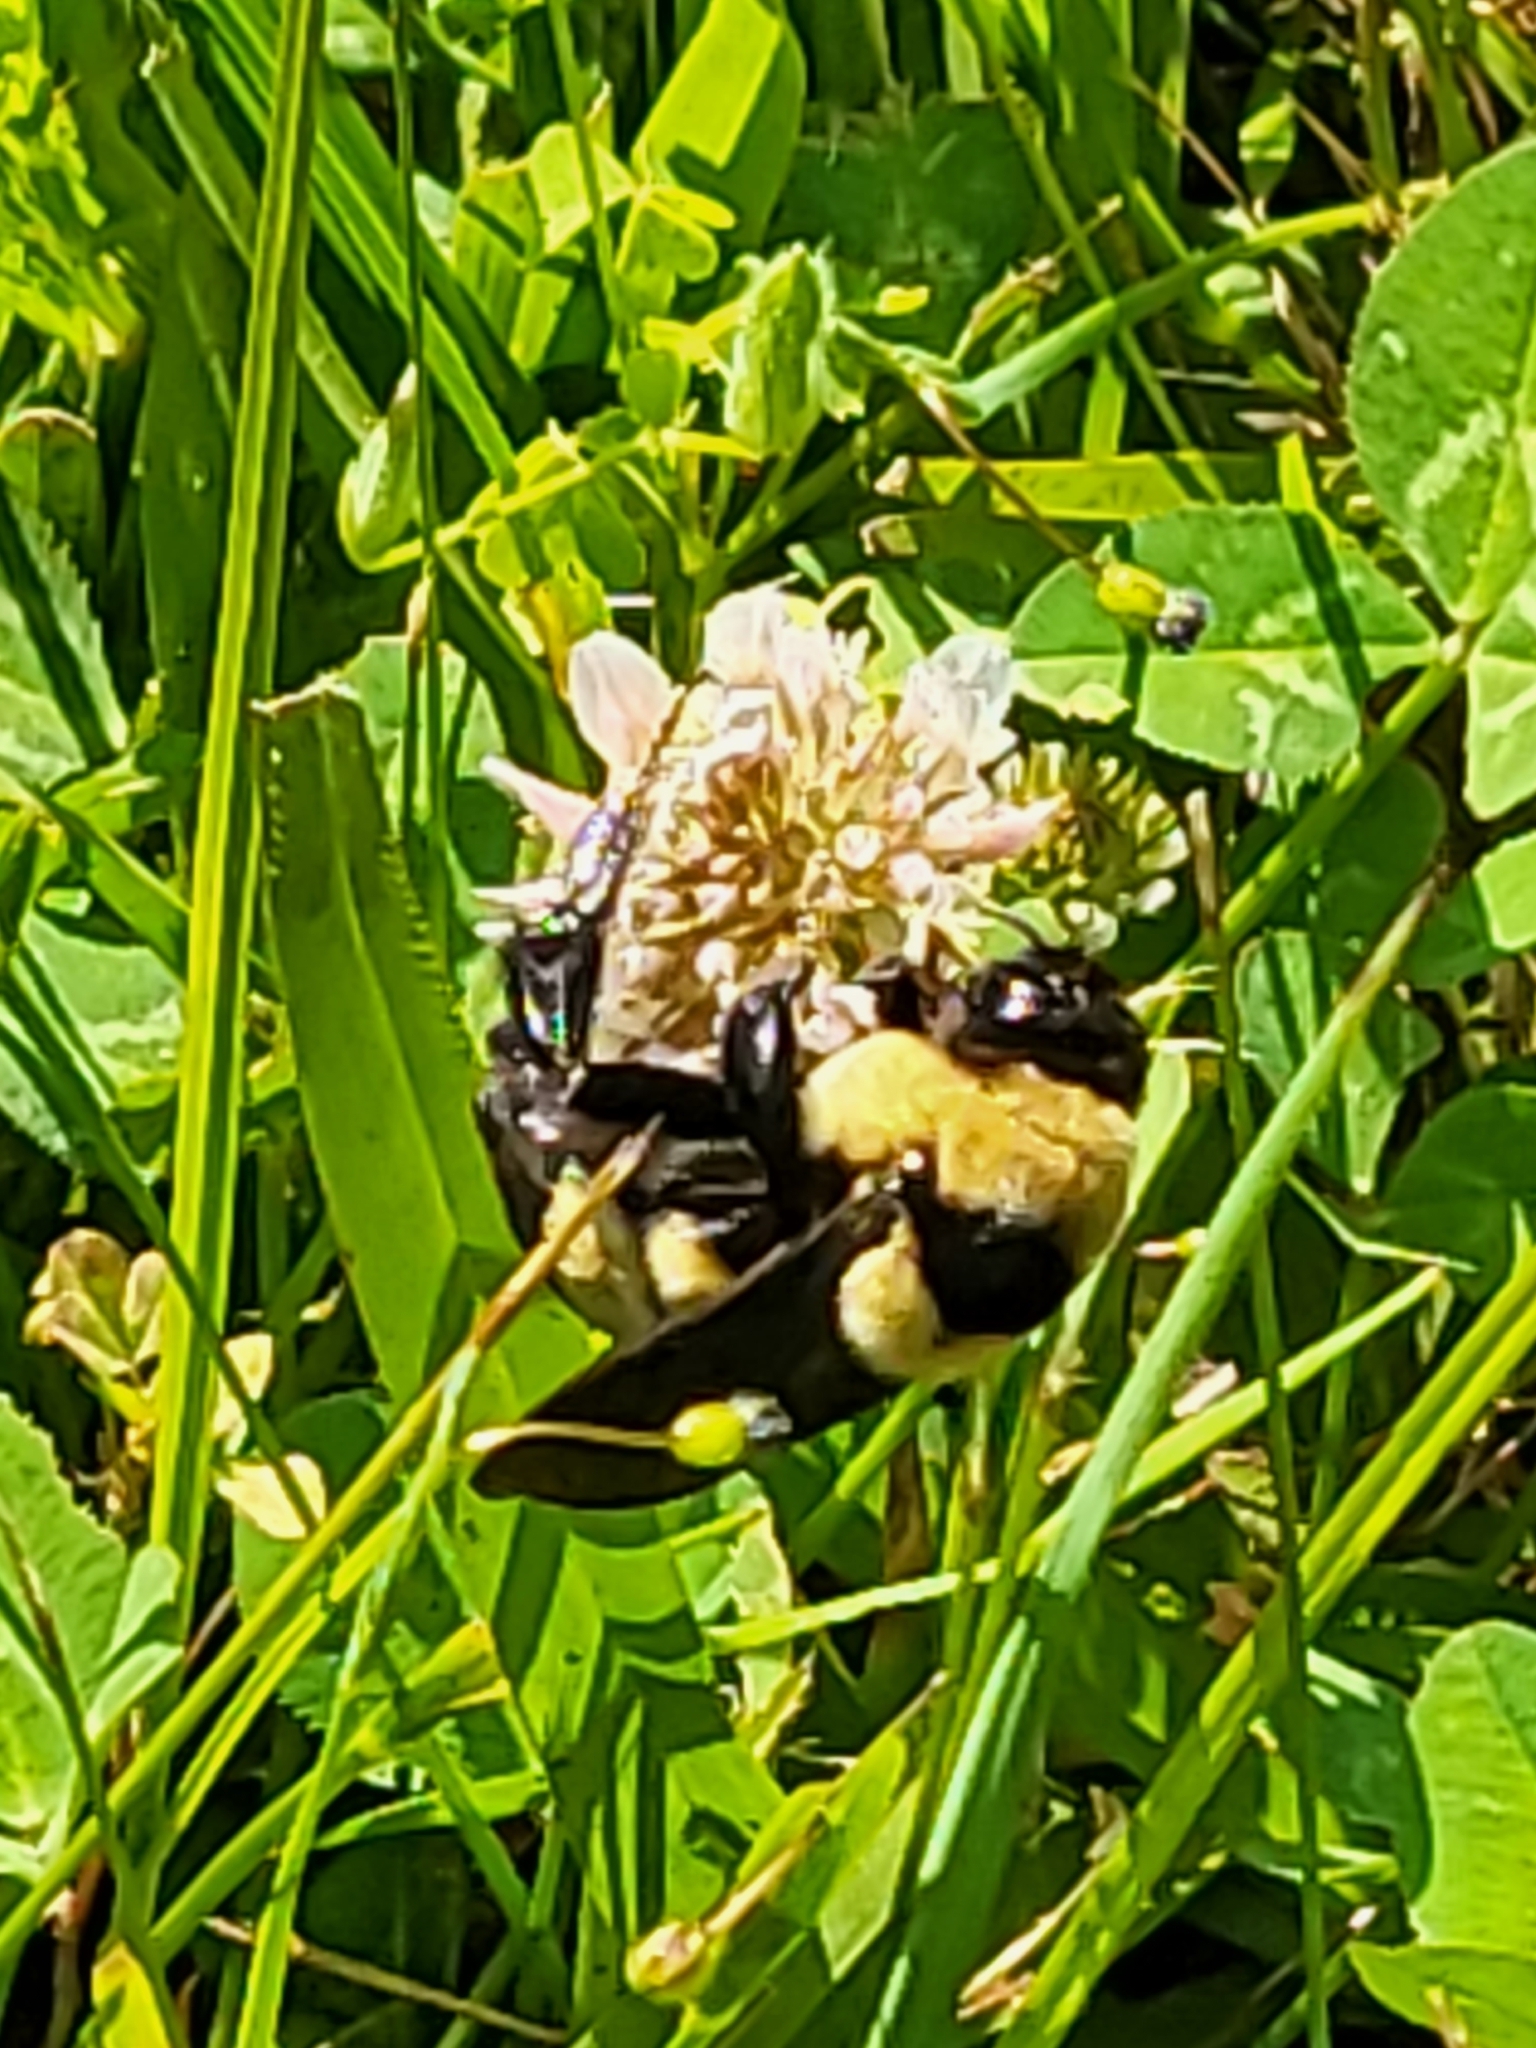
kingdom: Animalia
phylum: Arthropoda
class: Insecta
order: Hymenoptera
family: Apidae
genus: Bombus
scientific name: Bombus fraternus
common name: Southern plains bumble bee
